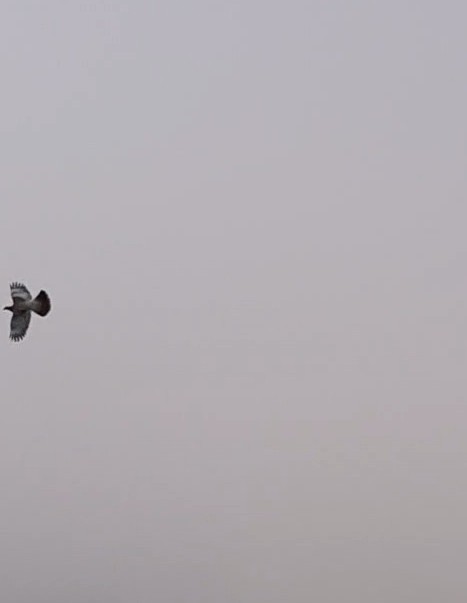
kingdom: Animalia
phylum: Chordata
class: Aves
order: Columbiformes
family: Columbidae
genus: Hemiphaga
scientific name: Hemiphaga novaeseelandiae
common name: New zealand pigeon
